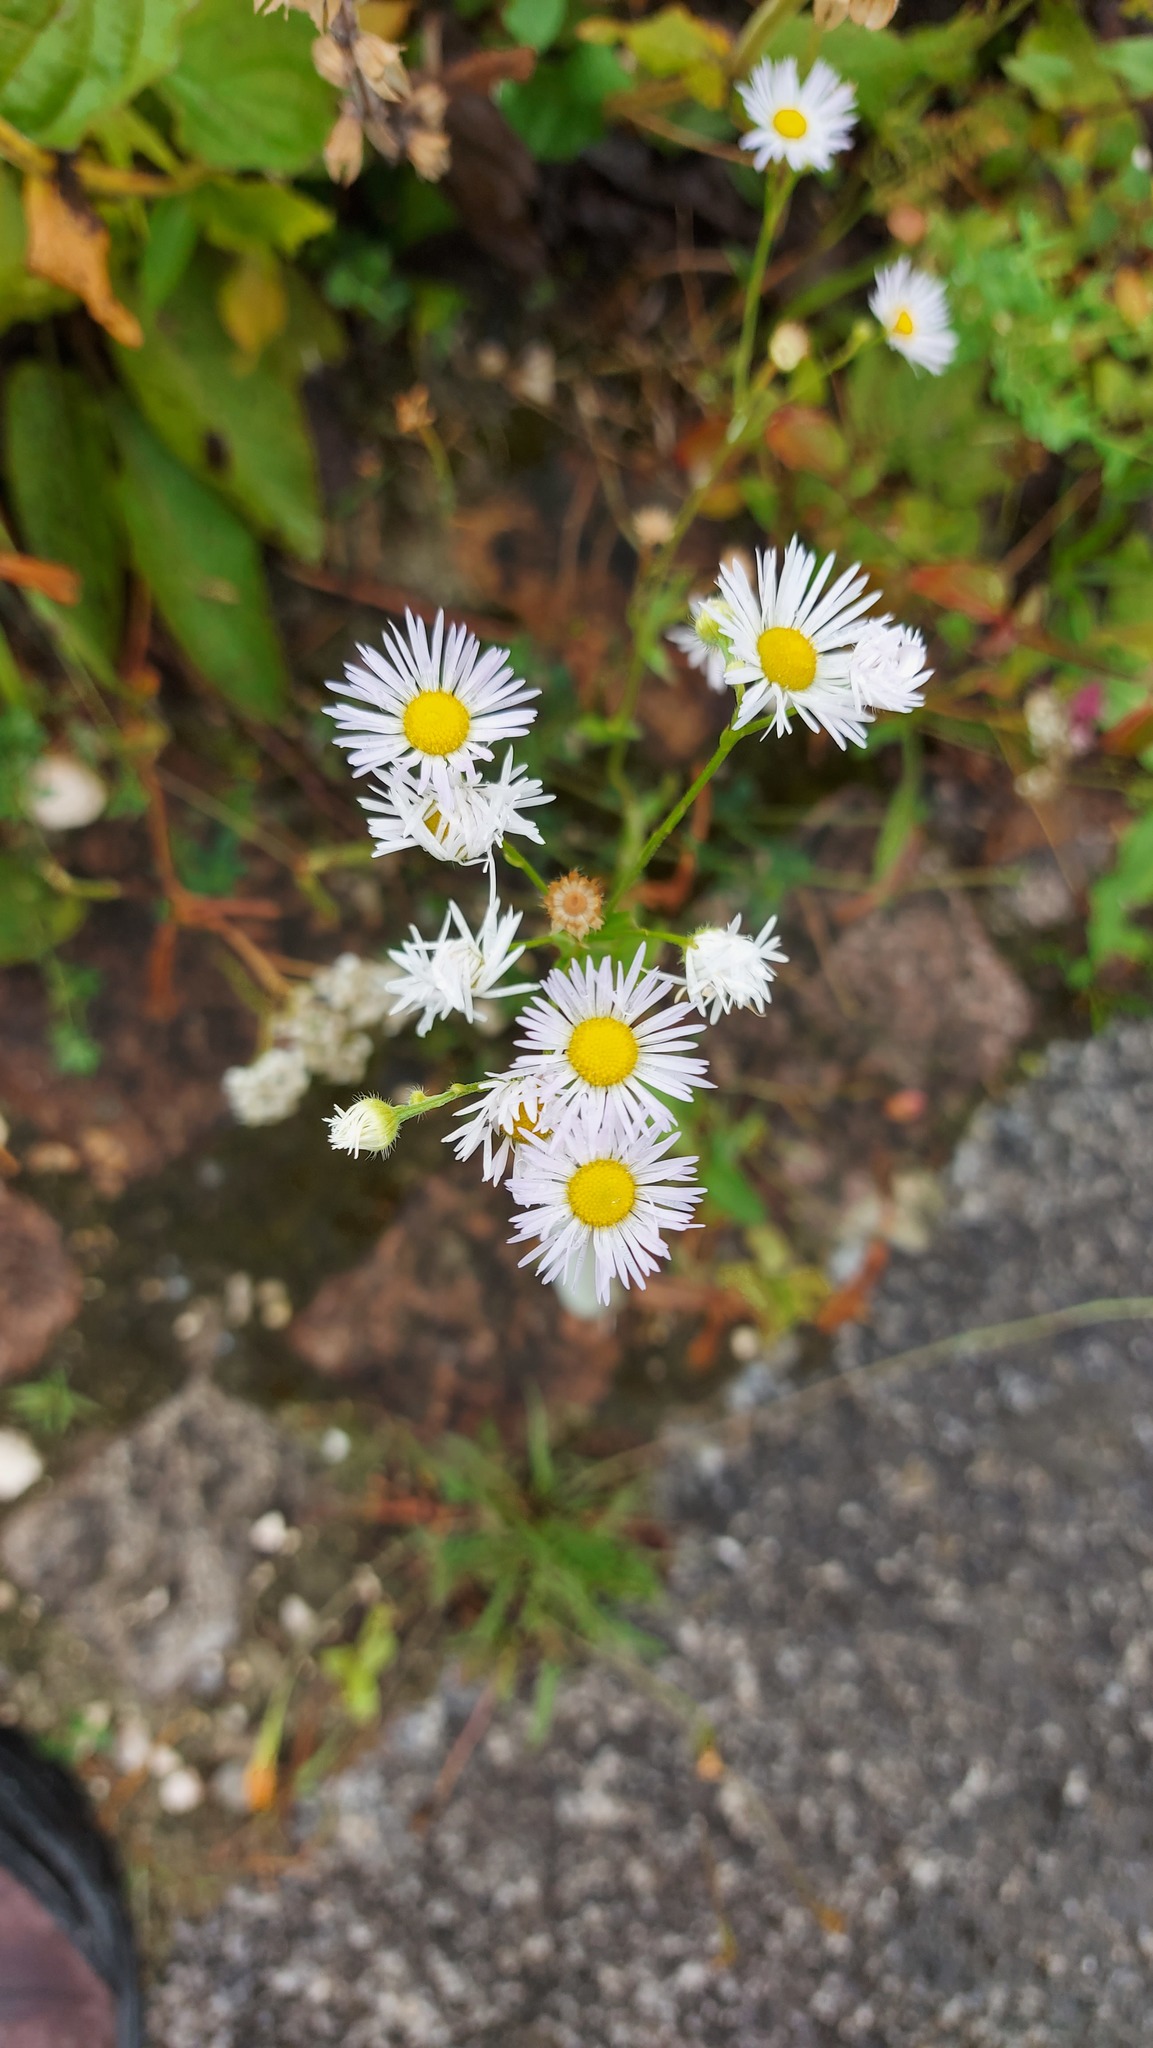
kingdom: Plantae
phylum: Tracheophyta
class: Magnoliopsida
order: Asterales
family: Asteraceae
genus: Erigeron
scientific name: Erigeron annuus
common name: Tall fleabane
